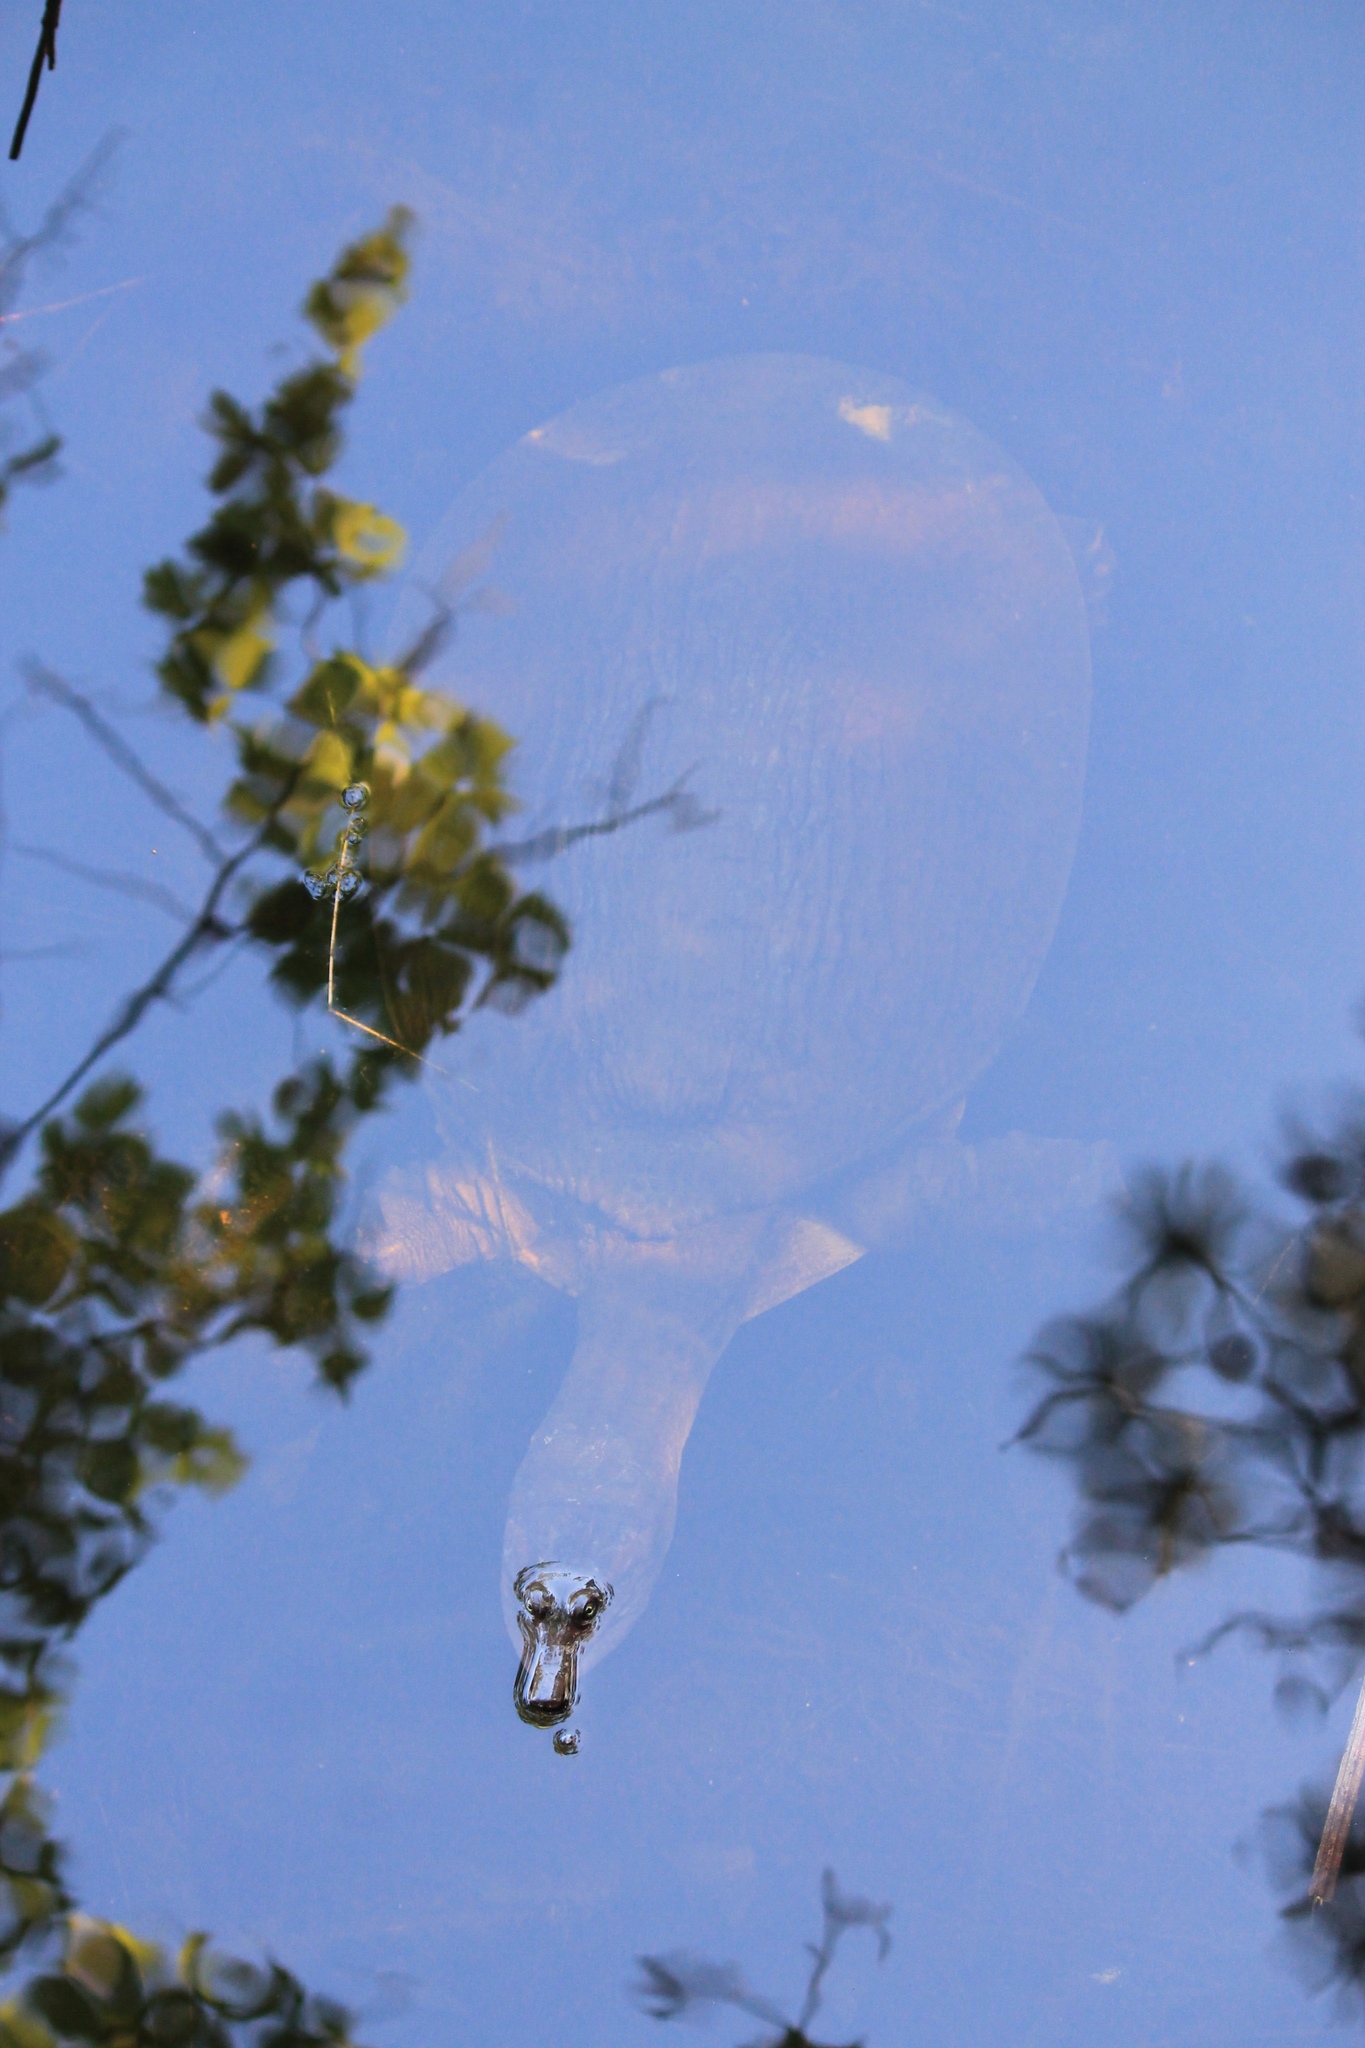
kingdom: Animalia
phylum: Chordata
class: Testudines
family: Trionychidae
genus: Apalone
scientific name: Apalone ferox
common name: Florida softshell turtle
